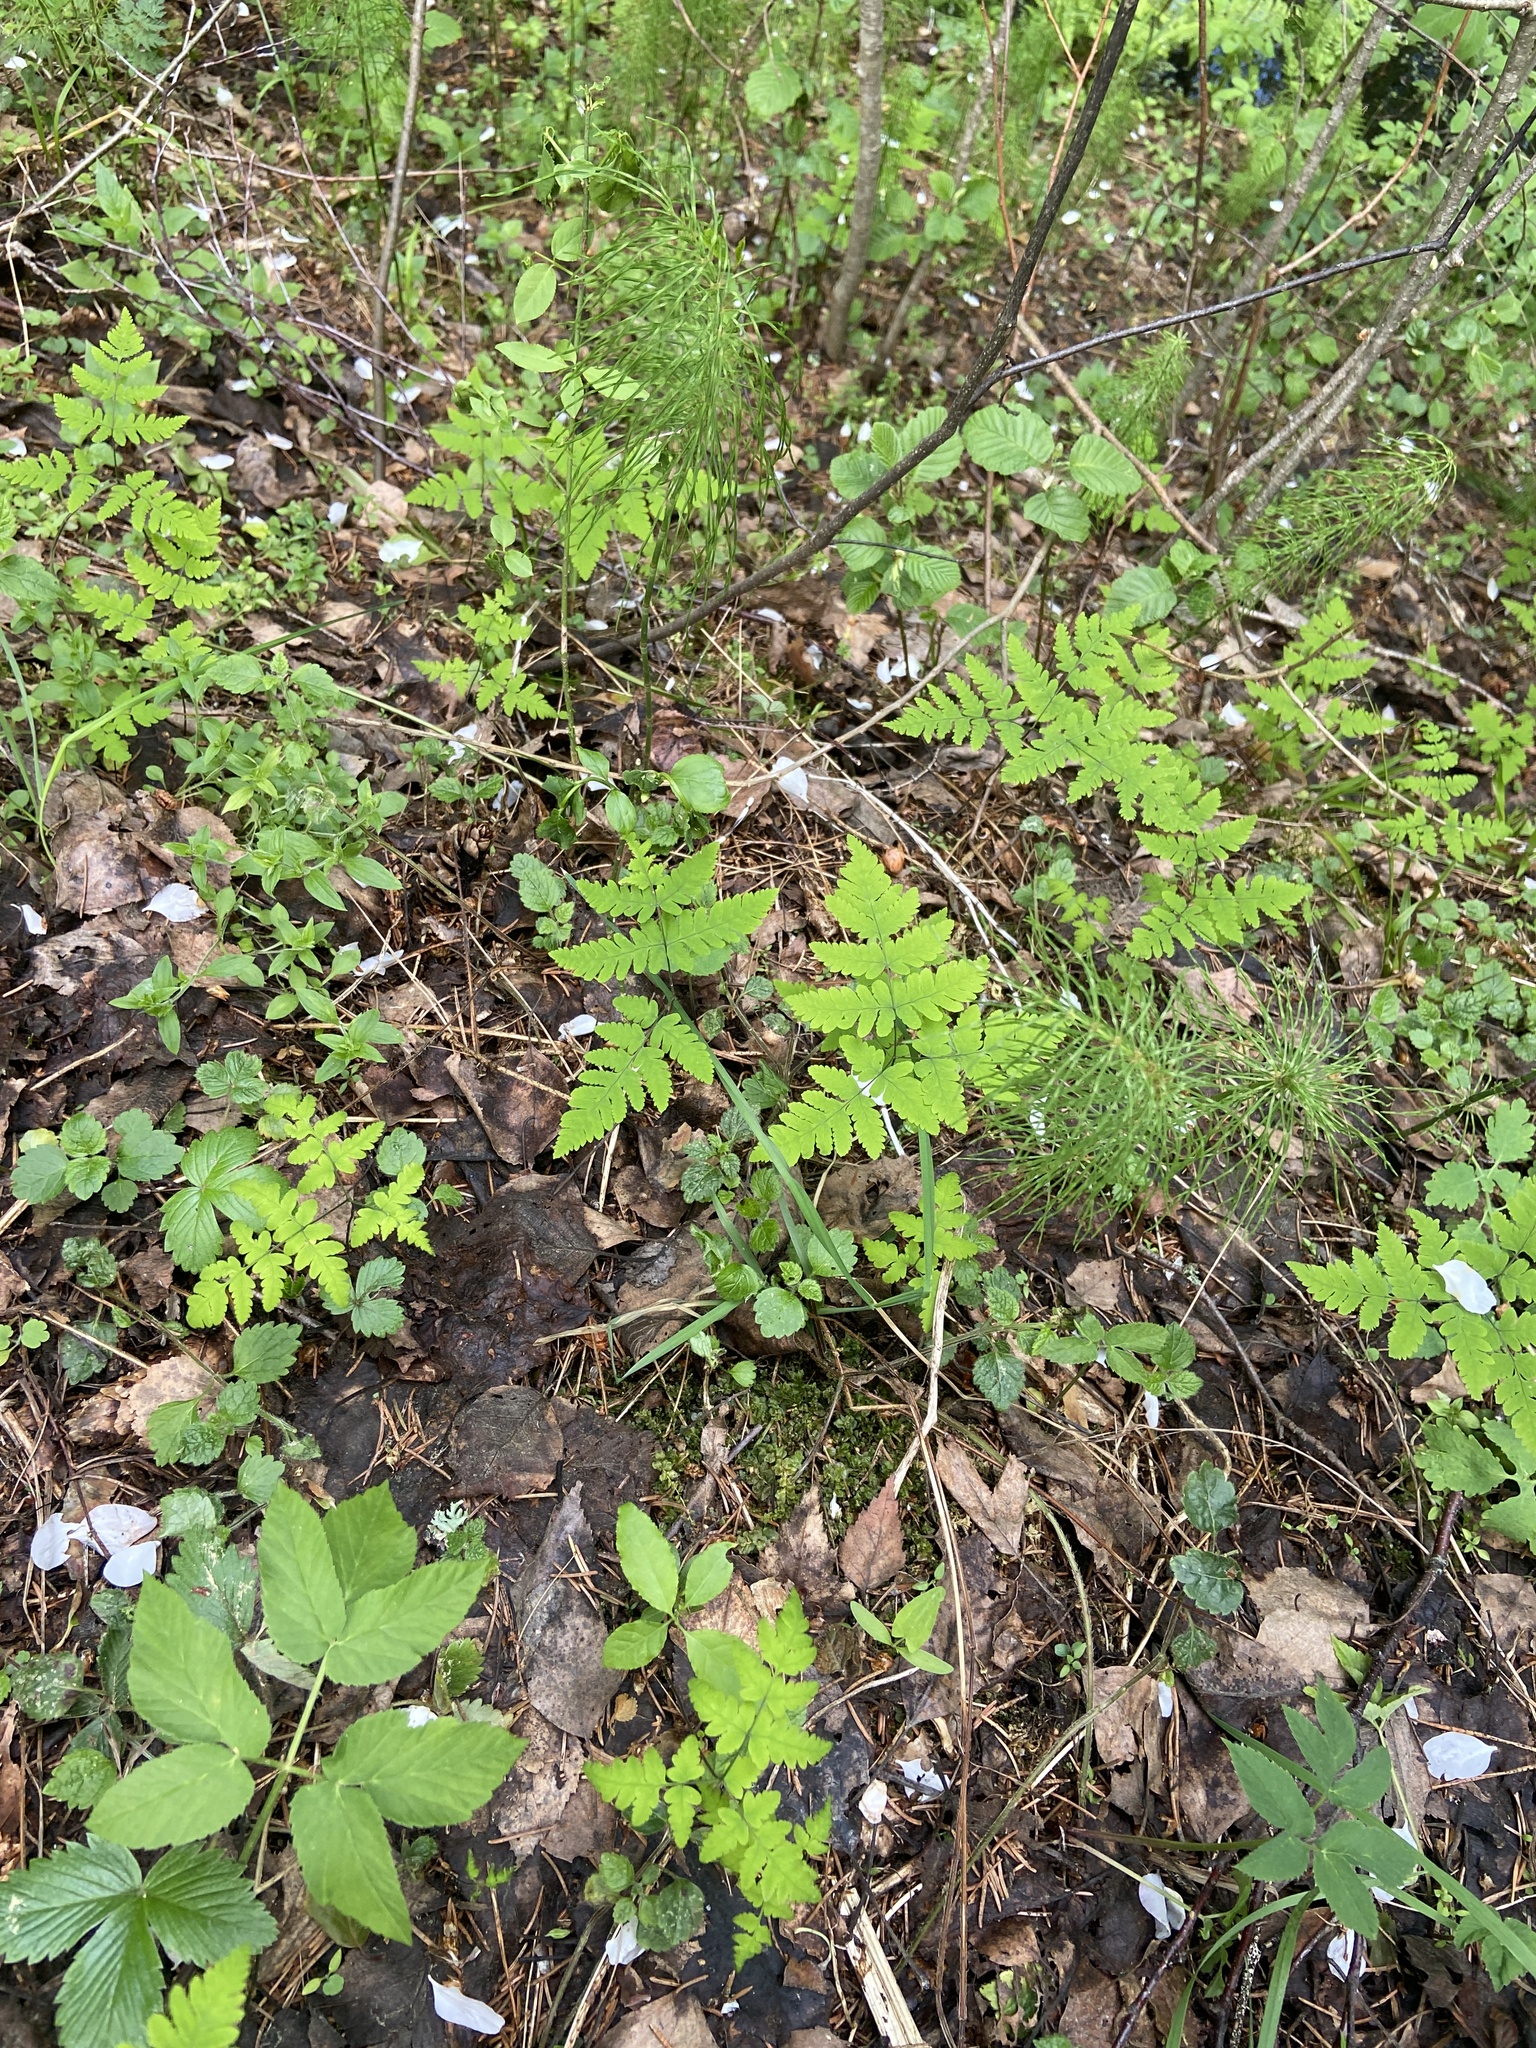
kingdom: Plantae
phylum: Tracheophyta
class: Polypodiopsida
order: Polypodiales
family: Cystopteridaceae
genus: Gymnocarpium
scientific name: Gymnocarpium dryopteris
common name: Oak fern
